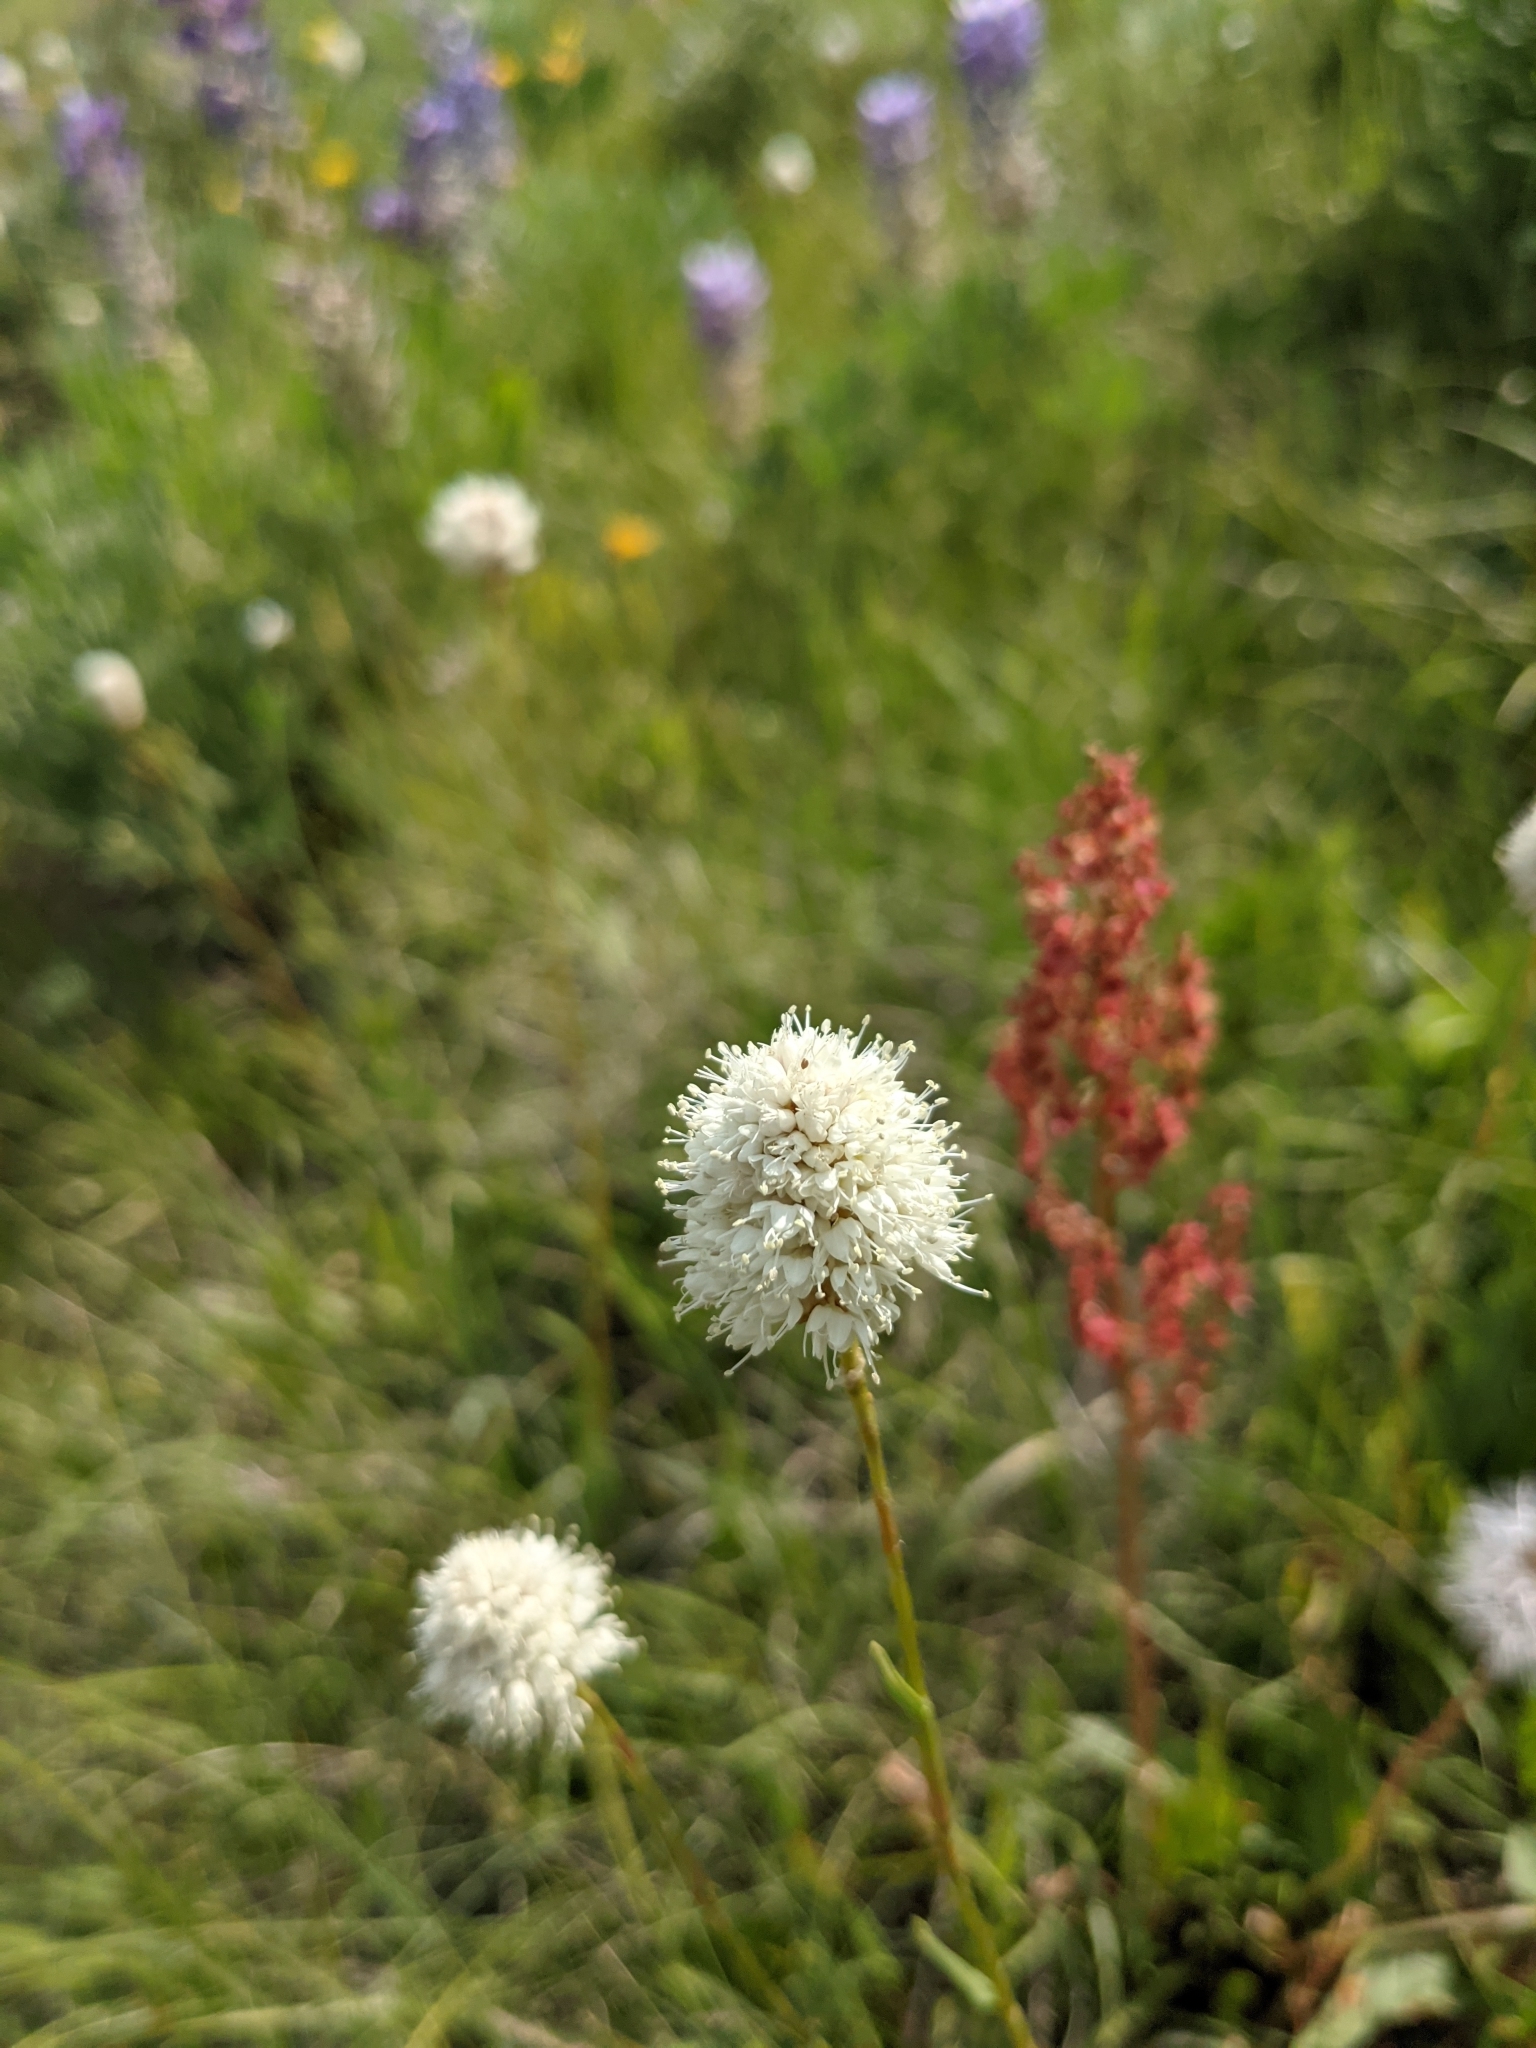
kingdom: Plantae
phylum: Tracheophyta
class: Magnoliopsida
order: Caryophyllales
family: Polygonaceae
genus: Bistorta
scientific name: Bistorta bistortoides
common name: American bistort
